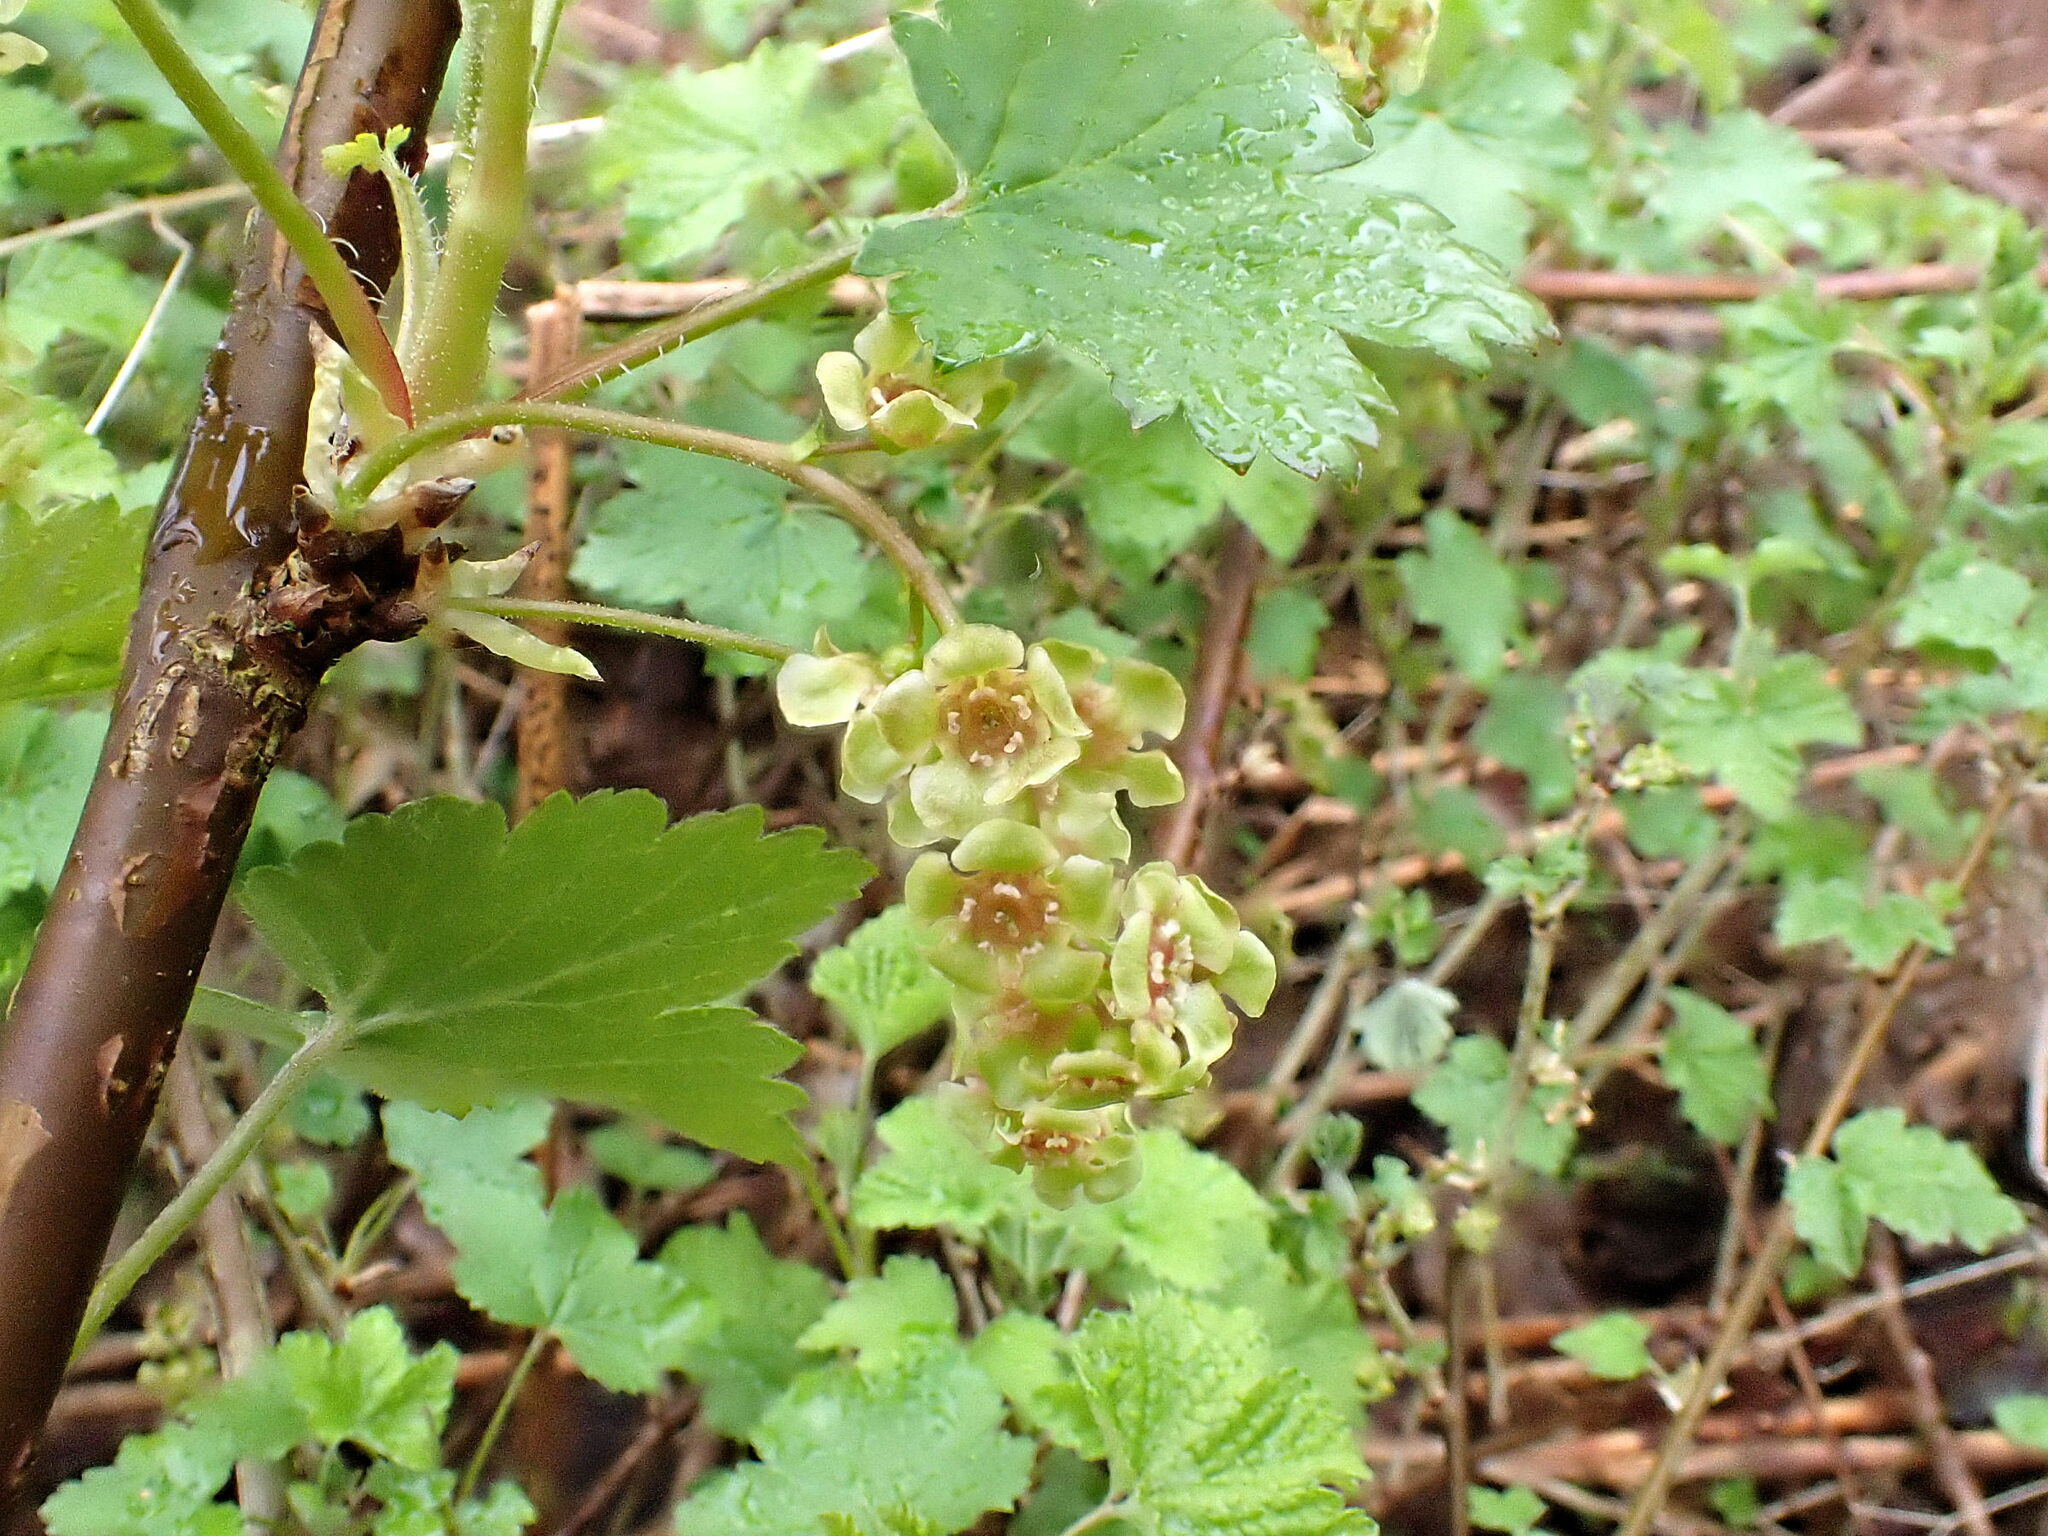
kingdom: Plantae
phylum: Tracheophyta
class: Magnoliopsida
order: Saxifragales
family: Grossulariaceae
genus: Ribes
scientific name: Ribes rubrum
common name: Red currant
